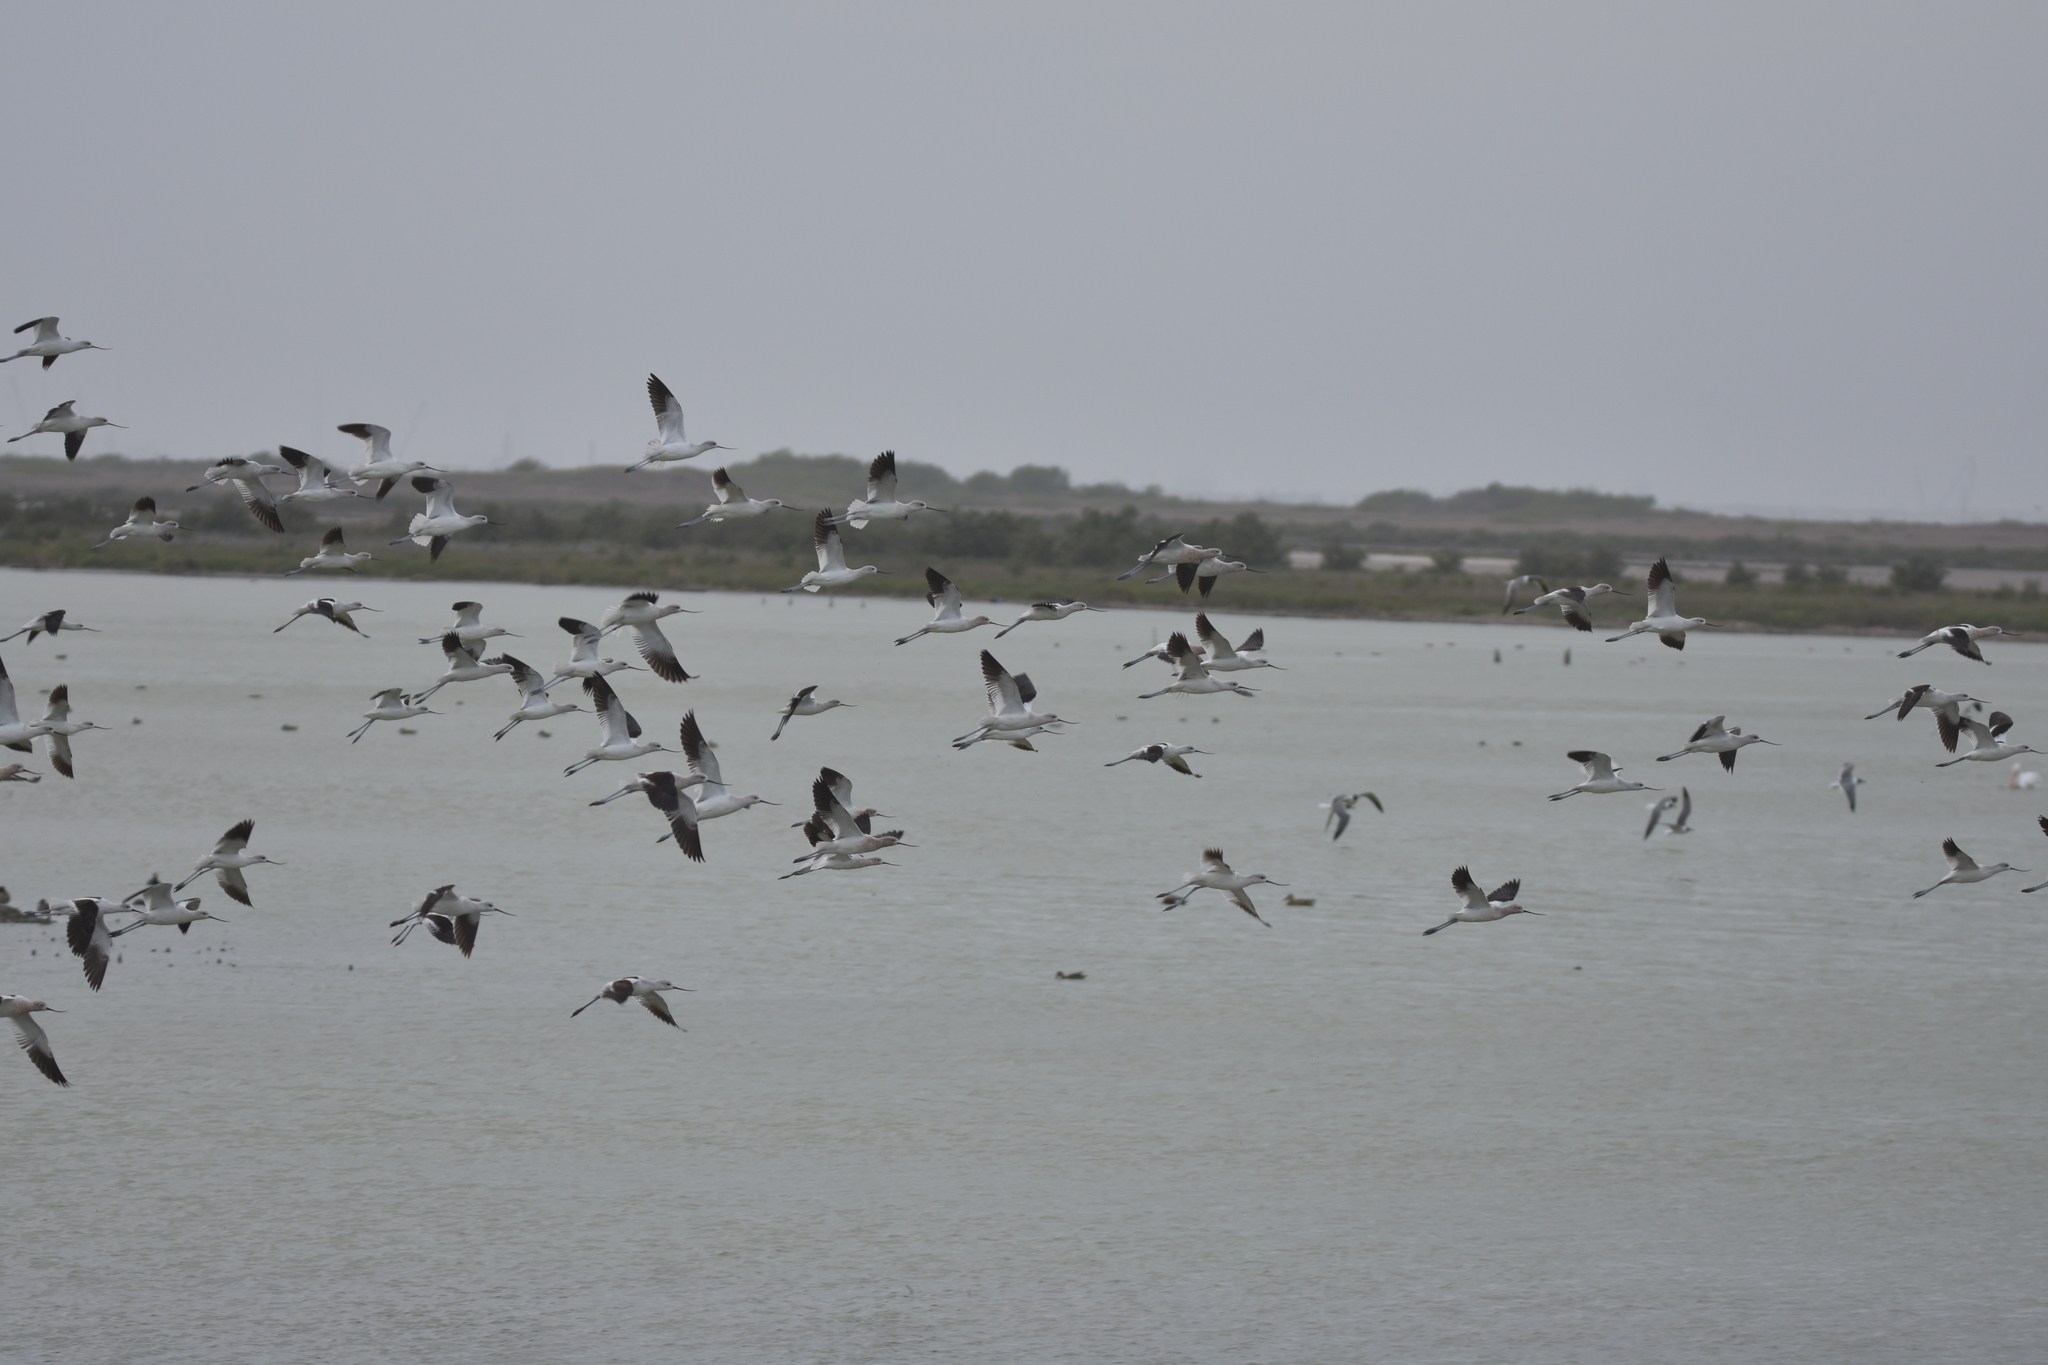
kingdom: Animalia
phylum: Chordata
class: Aves
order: Charadriiformes
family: Recurvirostridae
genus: Recurvirostra
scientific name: Recurvirostra americana
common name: American avocet
